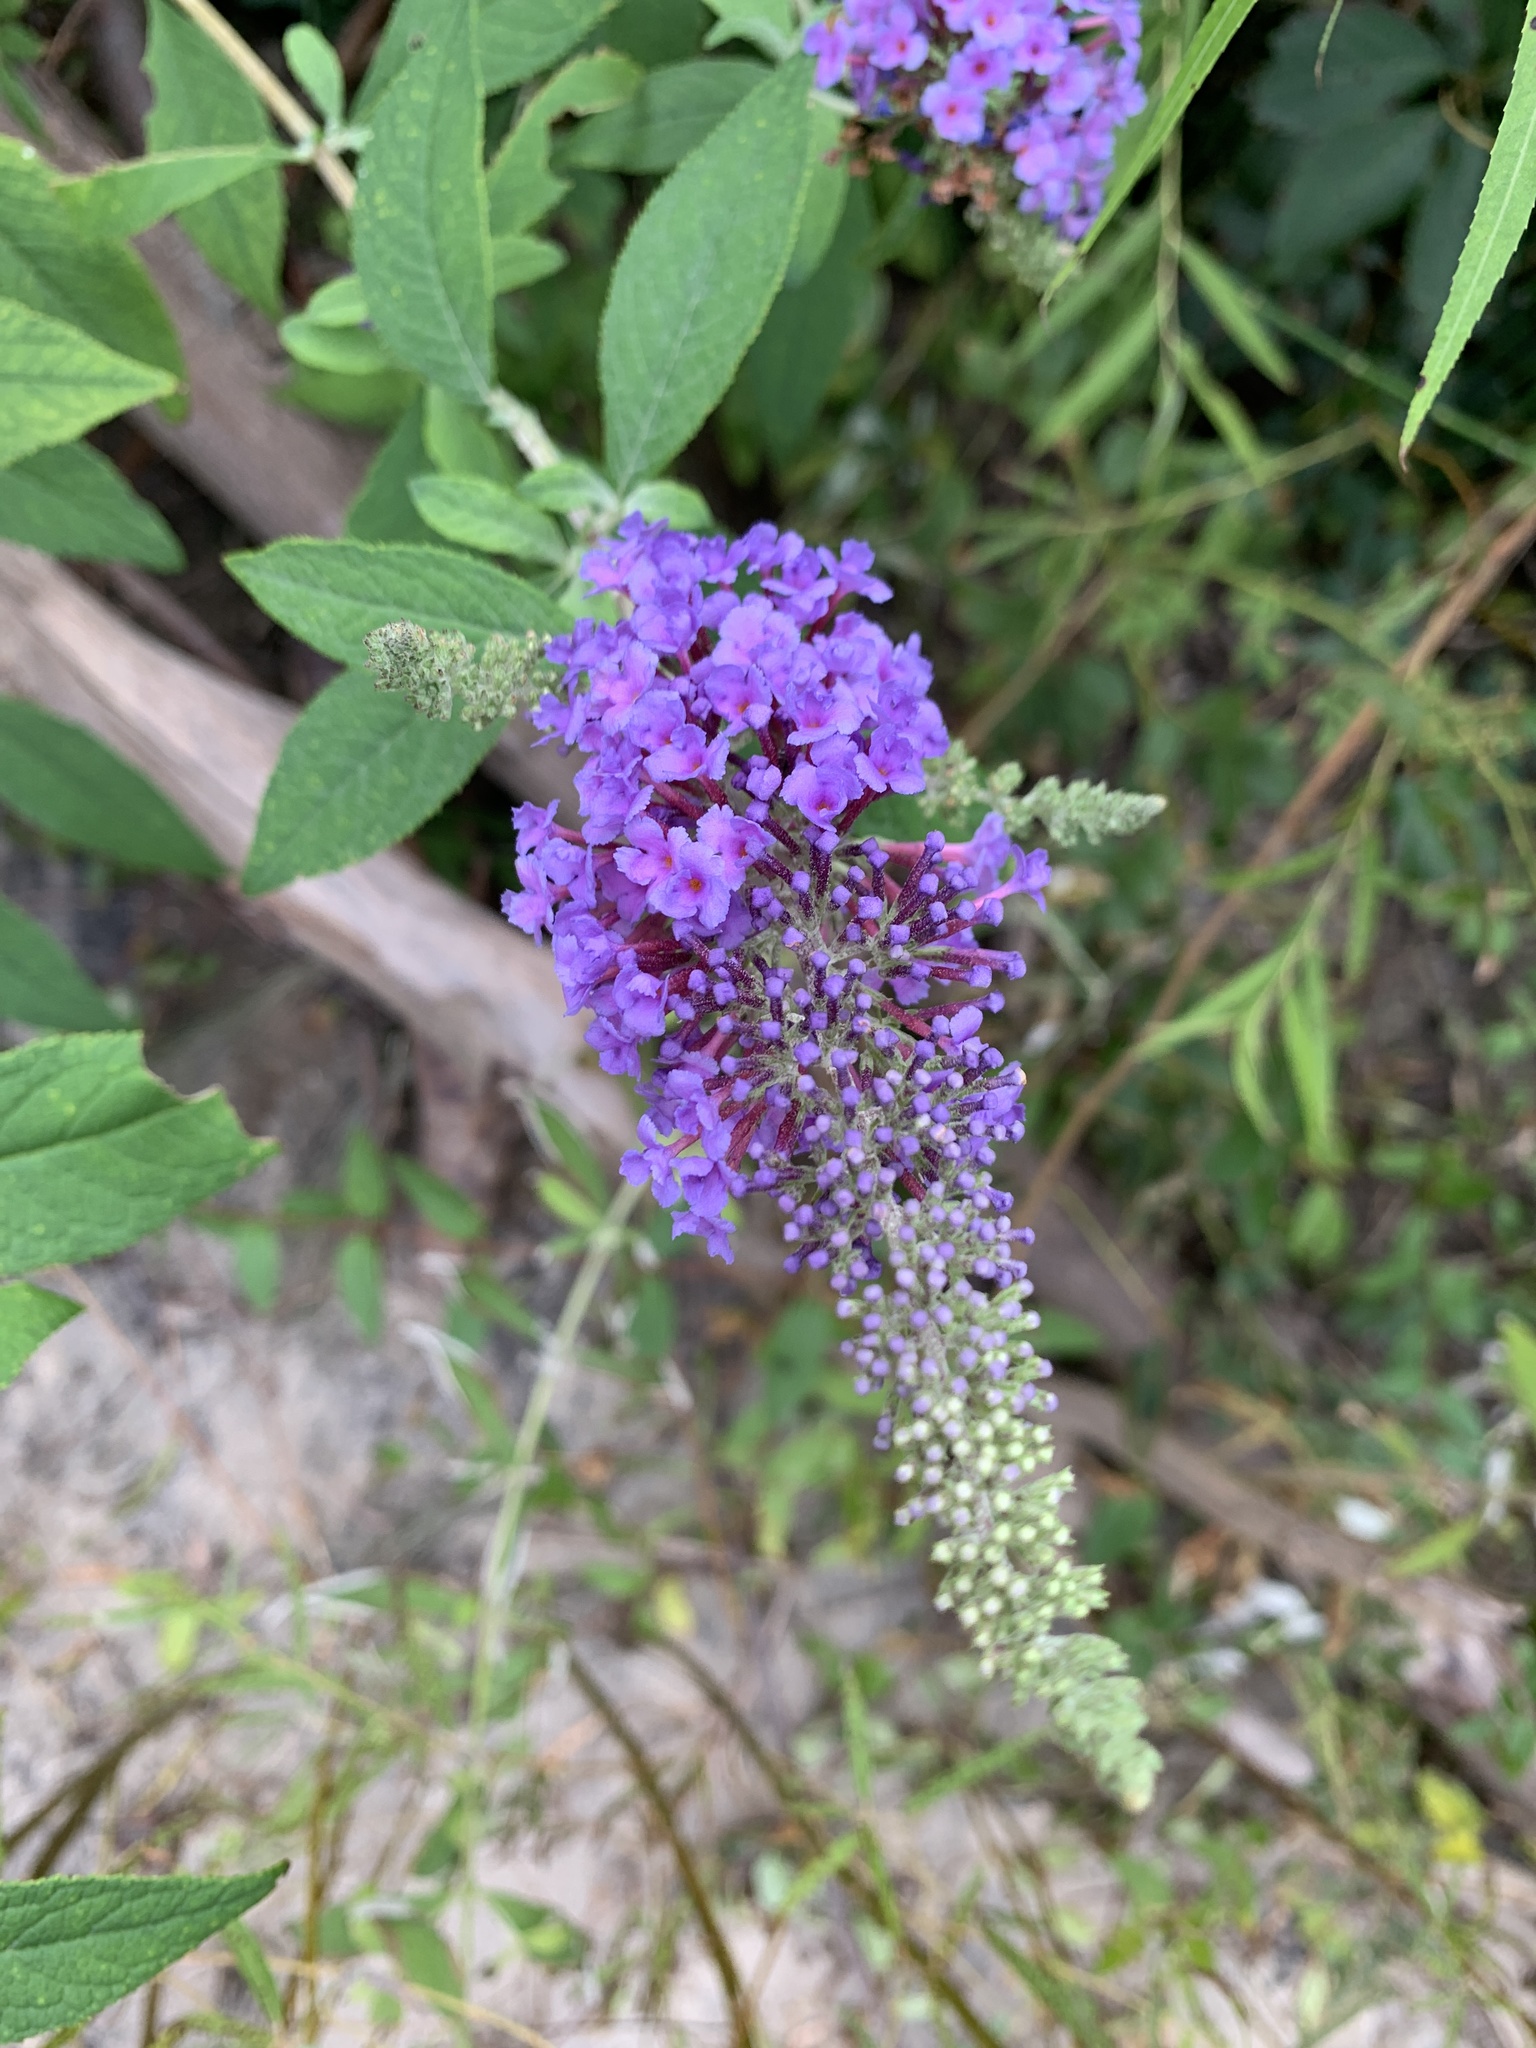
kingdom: Plantae
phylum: Tracheophyta
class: Magnoliopsida
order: Lamiales
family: Scrophulariaceae
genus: Buddleja
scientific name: Buddleja davidii
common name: Butterfly-bush
